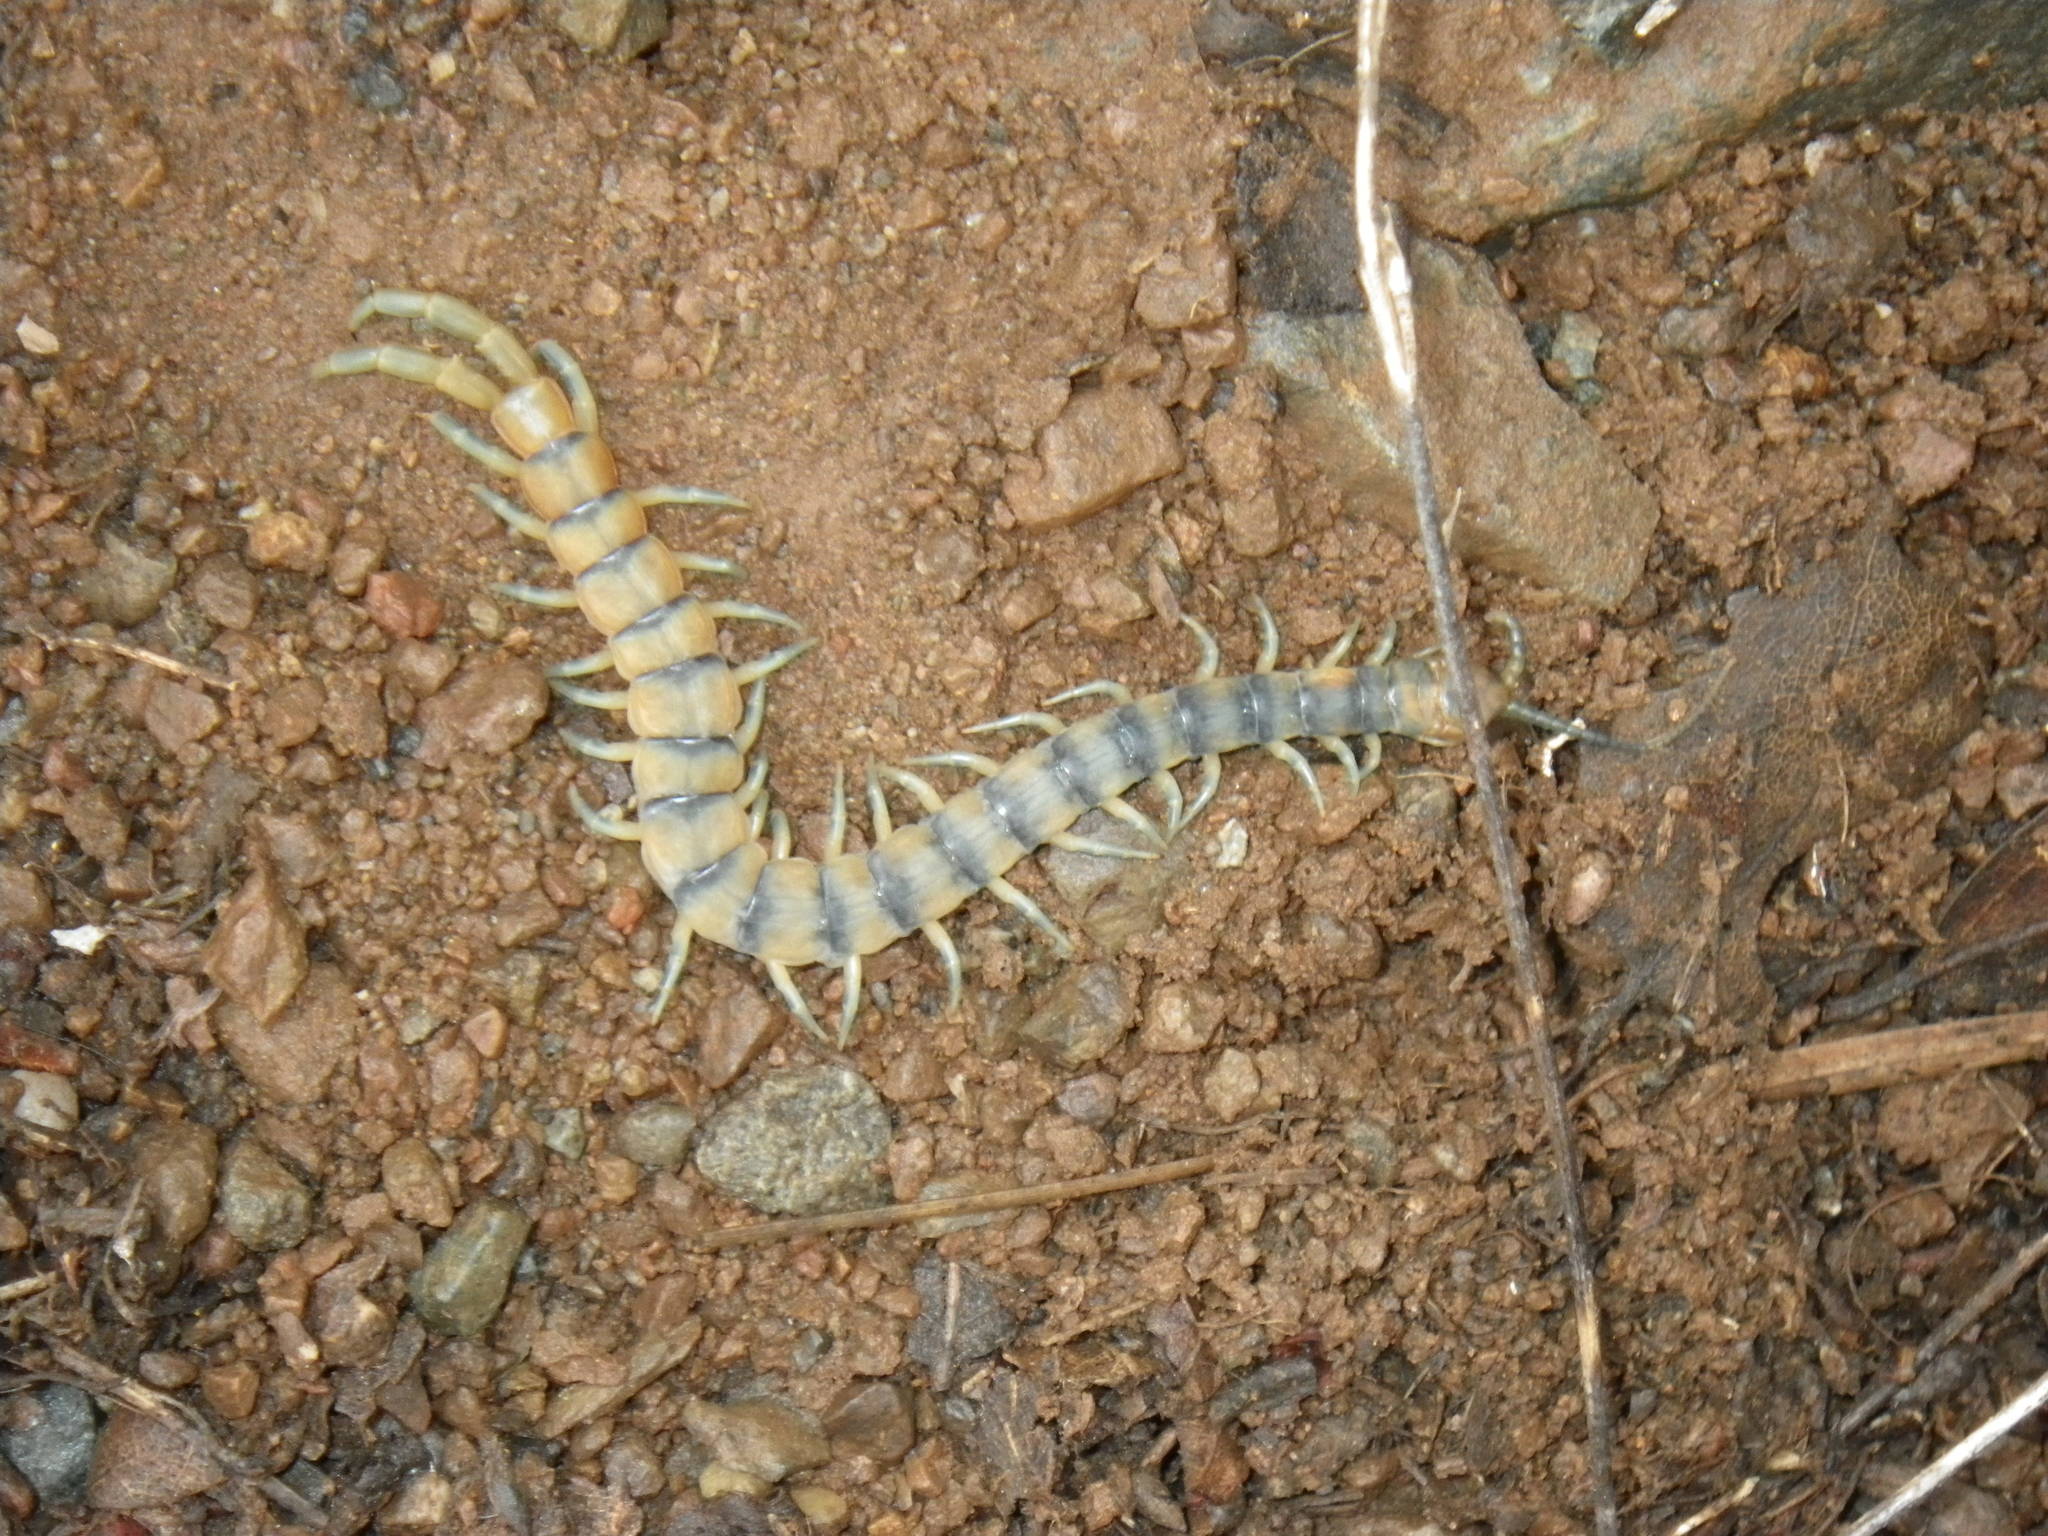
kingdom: Animalia
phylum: Arthropoda
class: Chilopoda
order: Scolopendromorpha
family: Scolopendridae
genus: Scolopendra
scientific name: Scolopendra polymorpha
